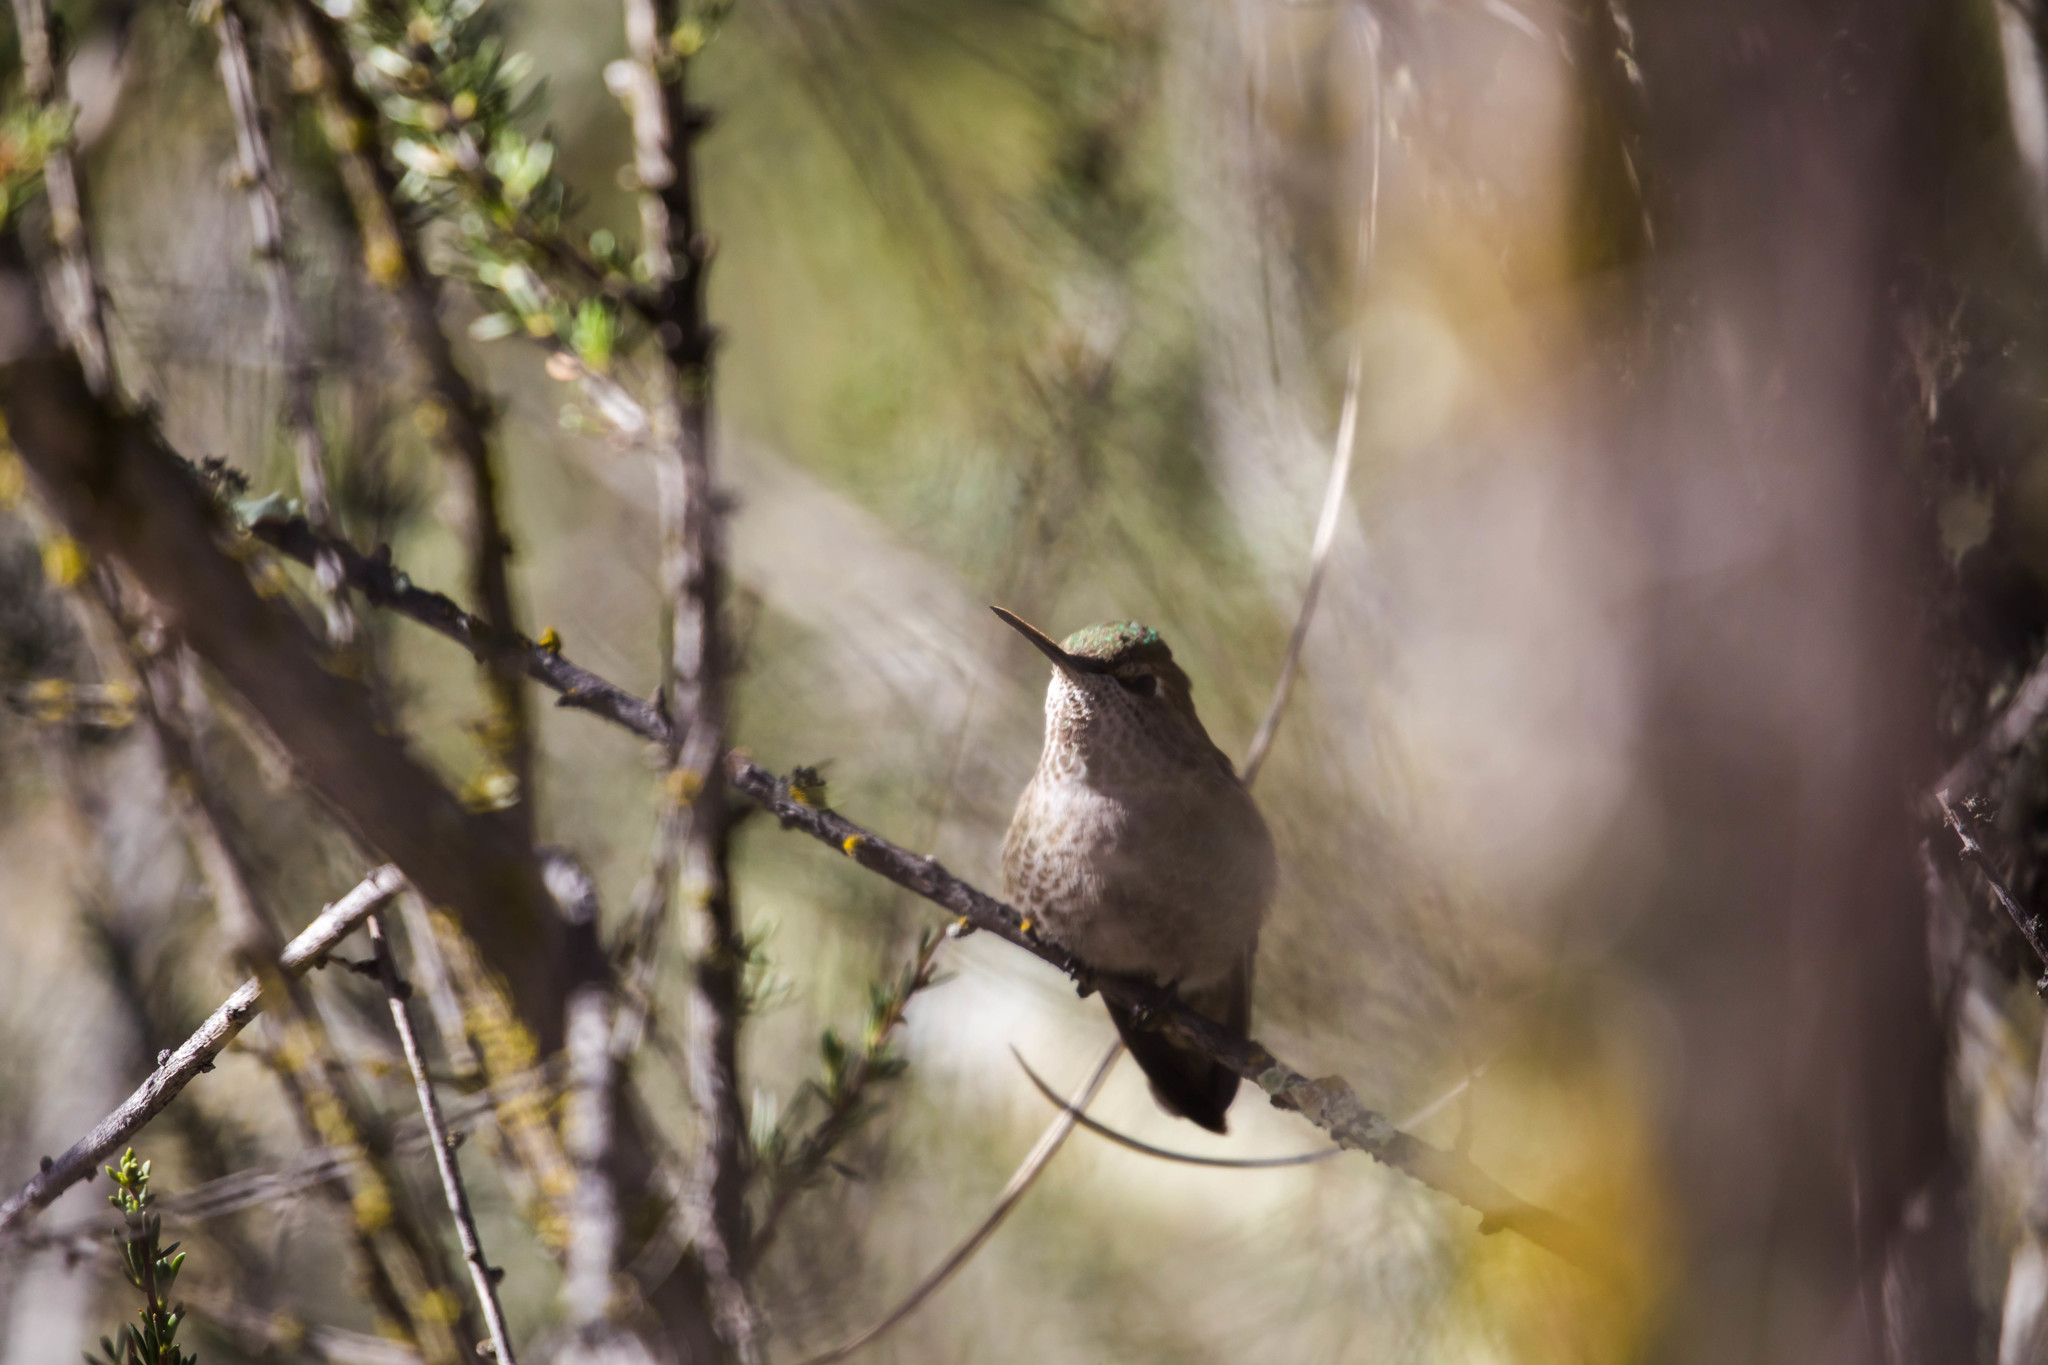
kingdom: Animalia
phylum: Chordata
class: Aves
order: Apodiformes
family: Trochilidae
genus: Calypte
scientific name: Calypte anna
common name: Anna's hummingbird
